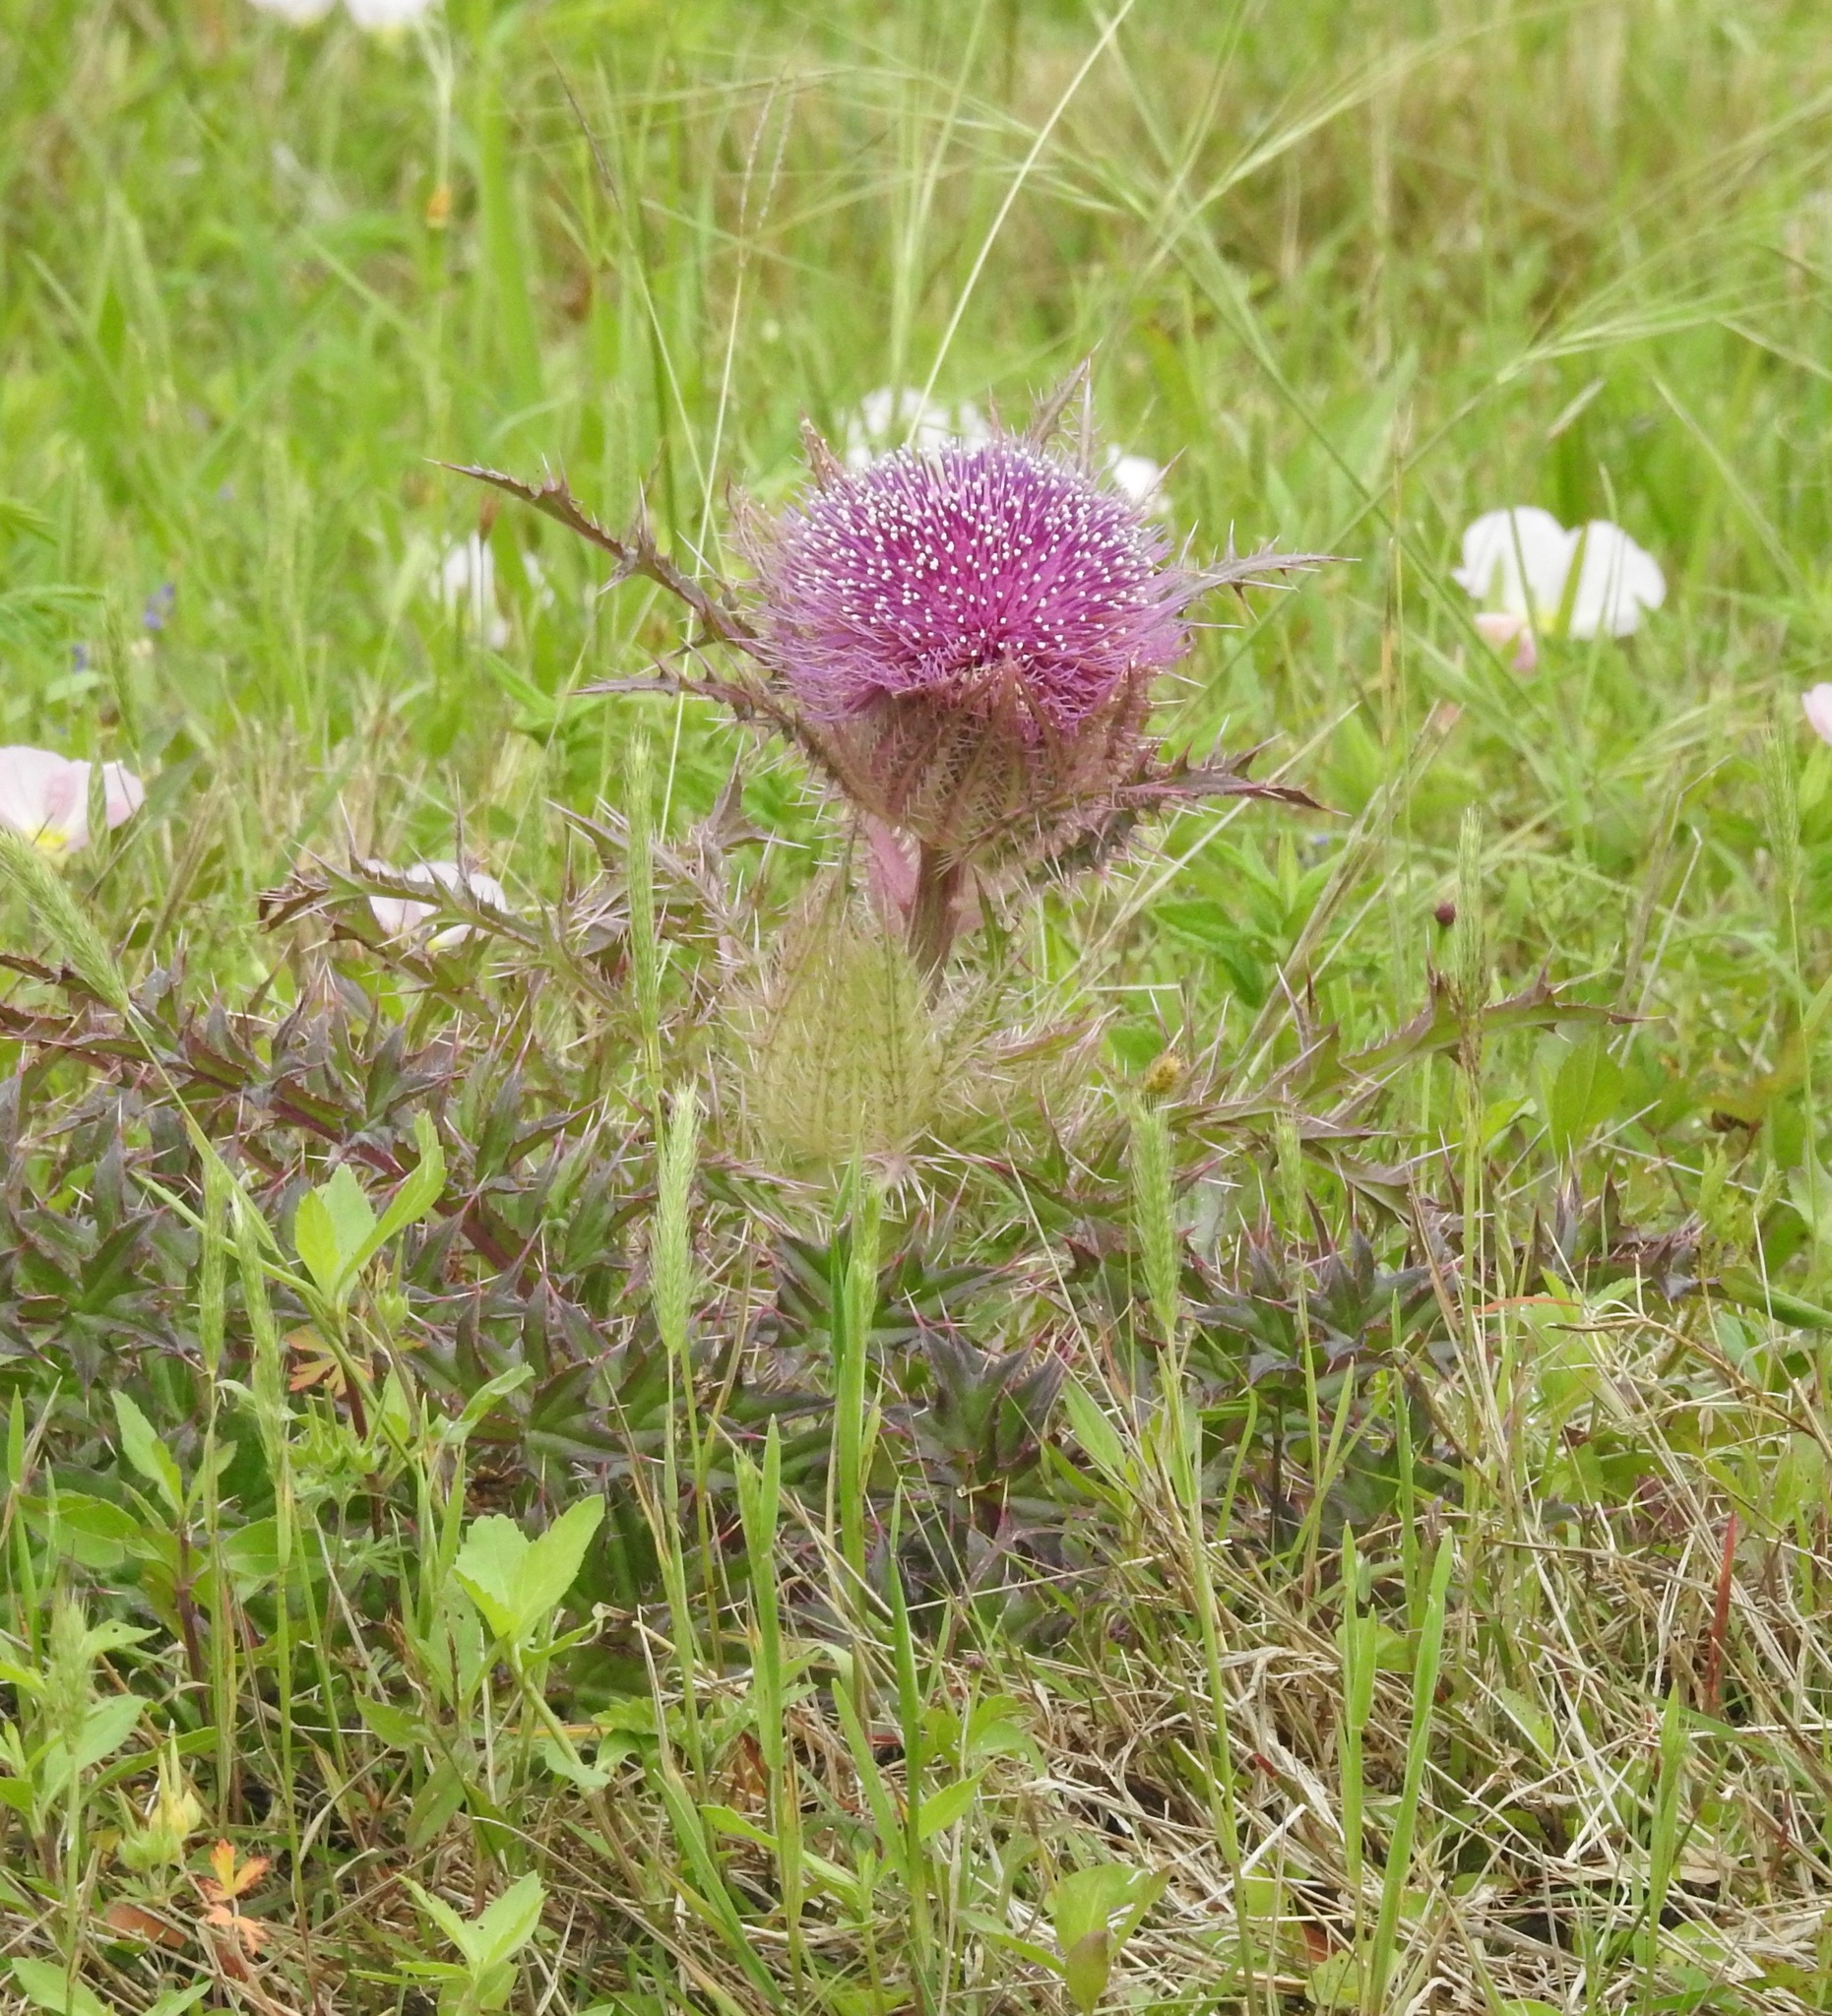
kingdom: Plantae
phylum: Tracheophyta
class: Magnoliopsida
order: Asterales
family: Asteraceae
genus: Cirsium
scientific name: Cirsium horridulum
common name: Bristly thistle
